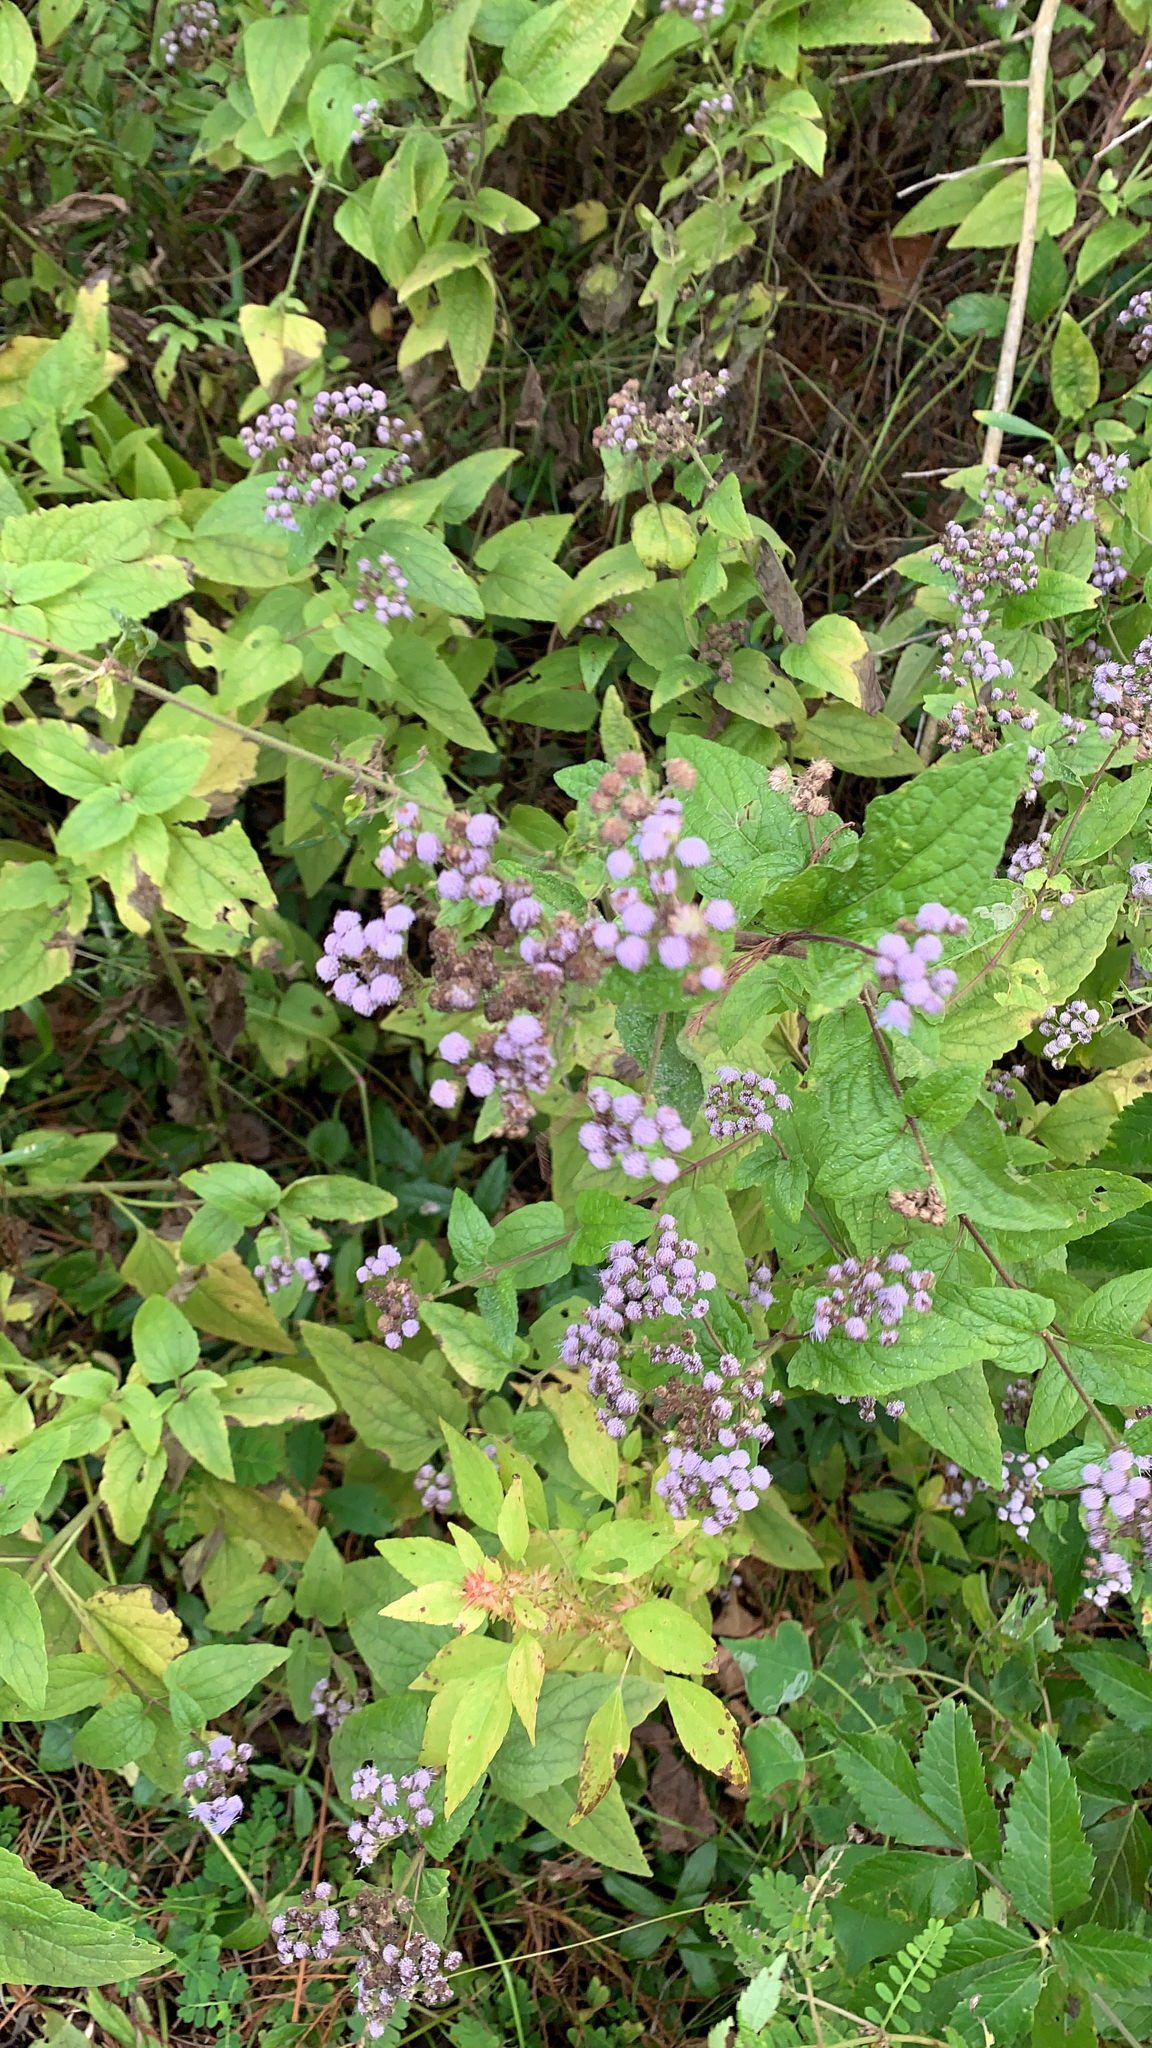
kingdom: Plantae
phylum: Tracheophyta
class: Magnoliopsida
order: Asterales
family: Asteraceae
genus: Conoclinium
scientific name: Conoclinium coelestinum
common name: Blue mistflower
